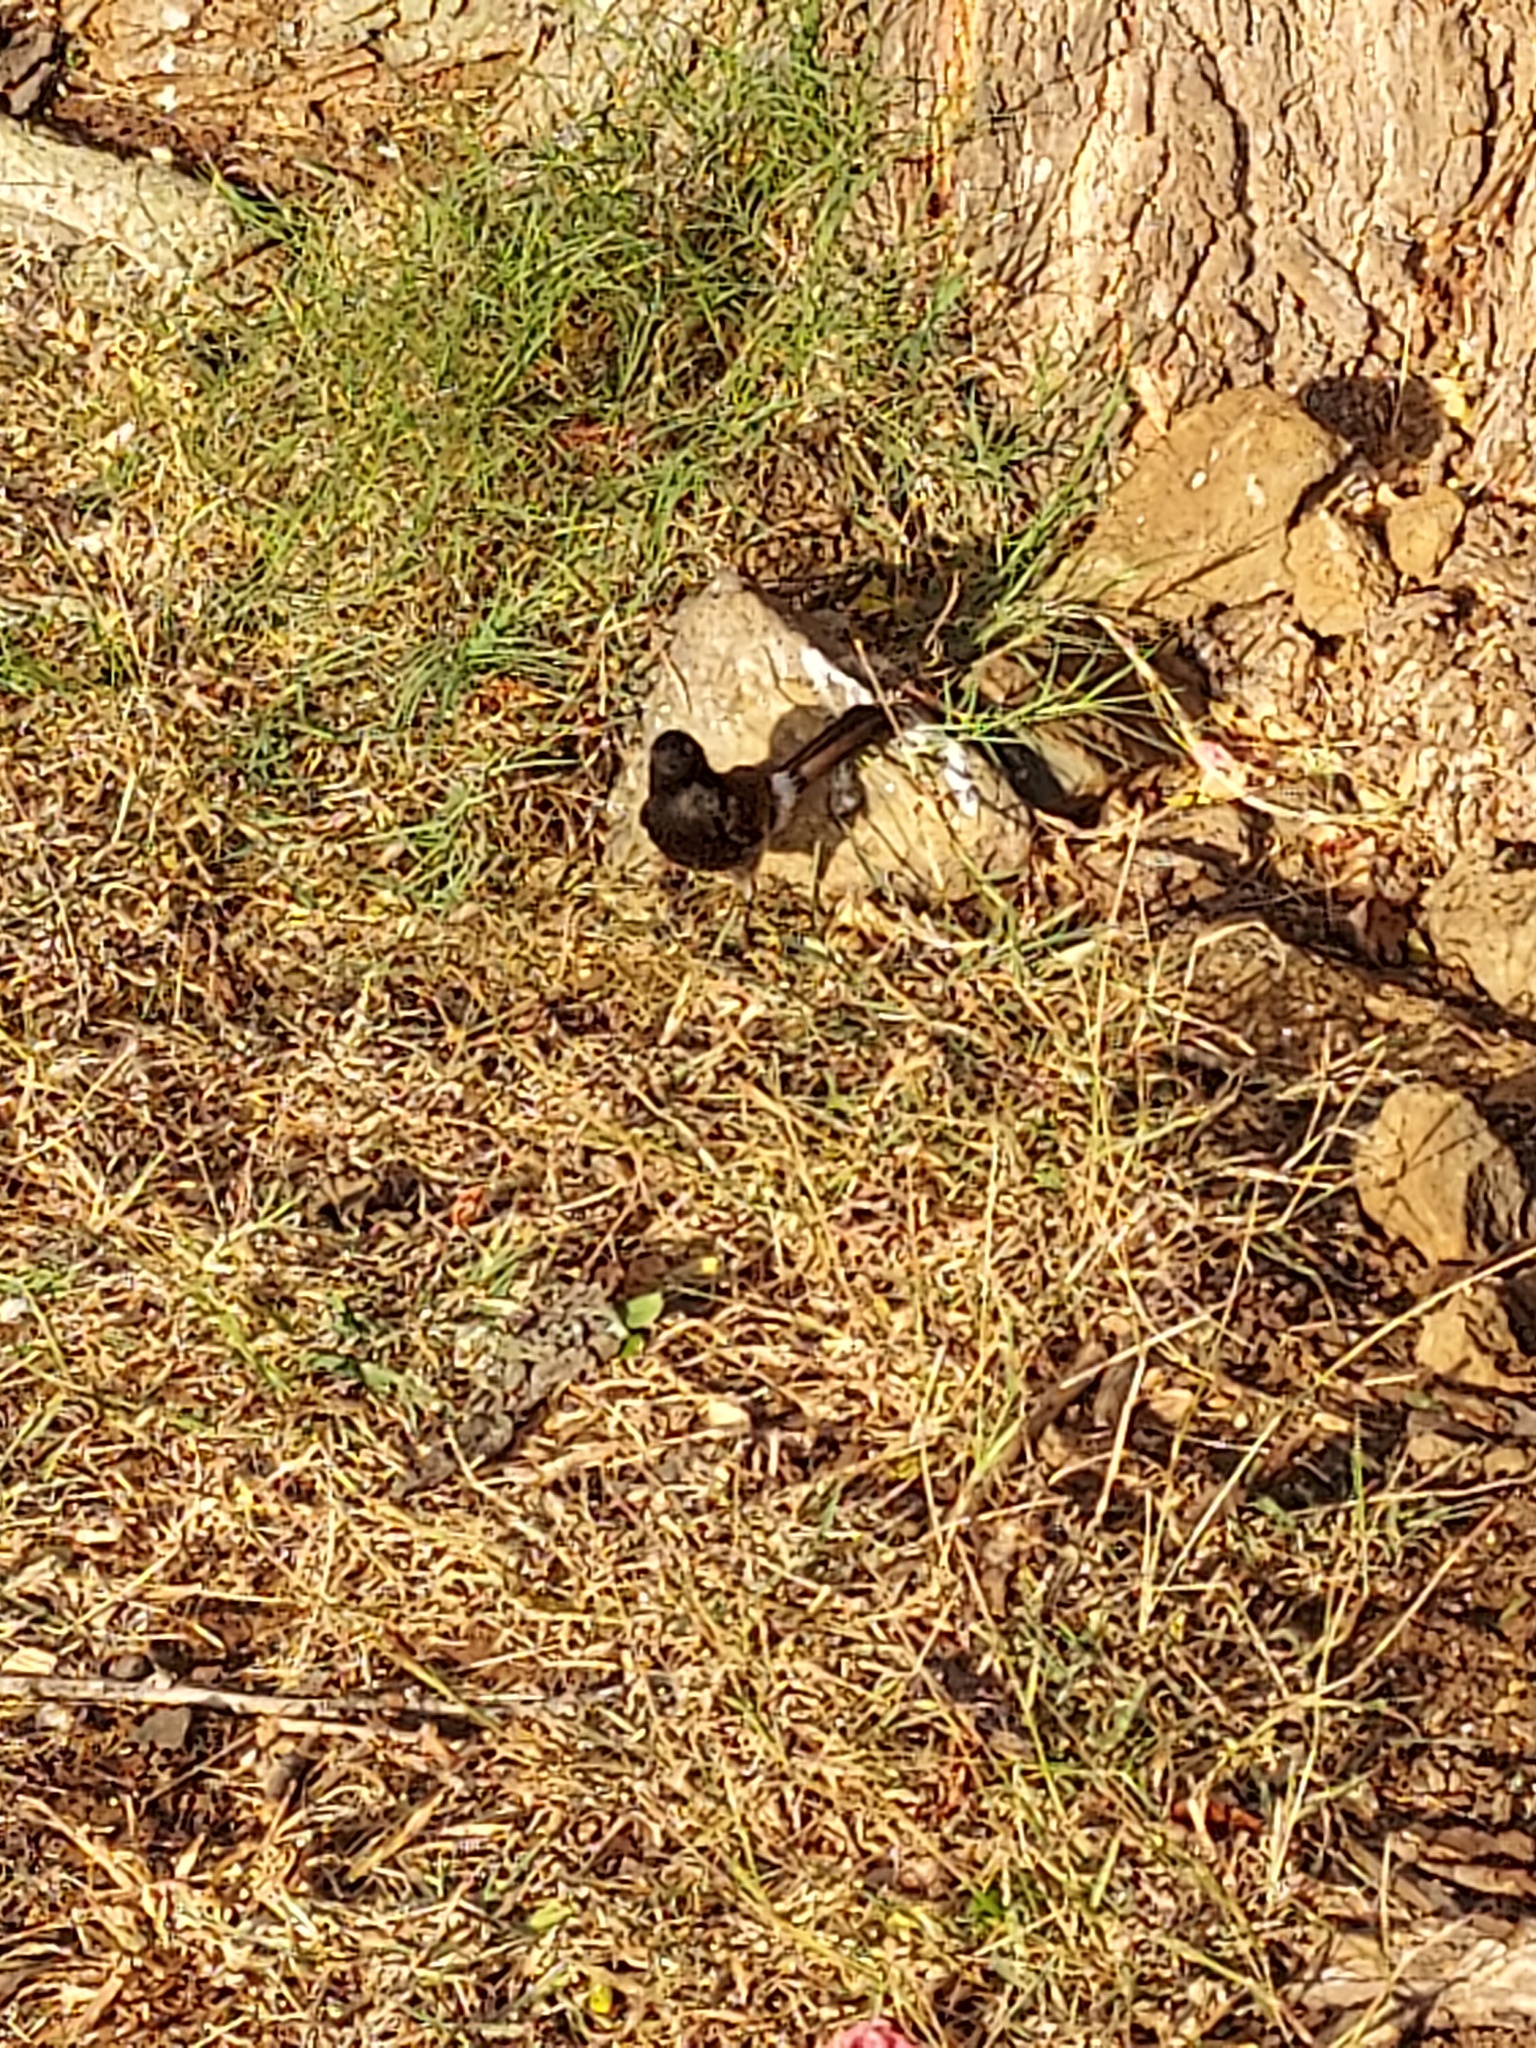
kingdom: Animalia
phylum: Chordata
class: Aves
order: Passeriformes
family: Pycnonotidae
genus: Pycnonotus
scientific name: Pycnonotus cafer
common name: Red-vented bulbul
